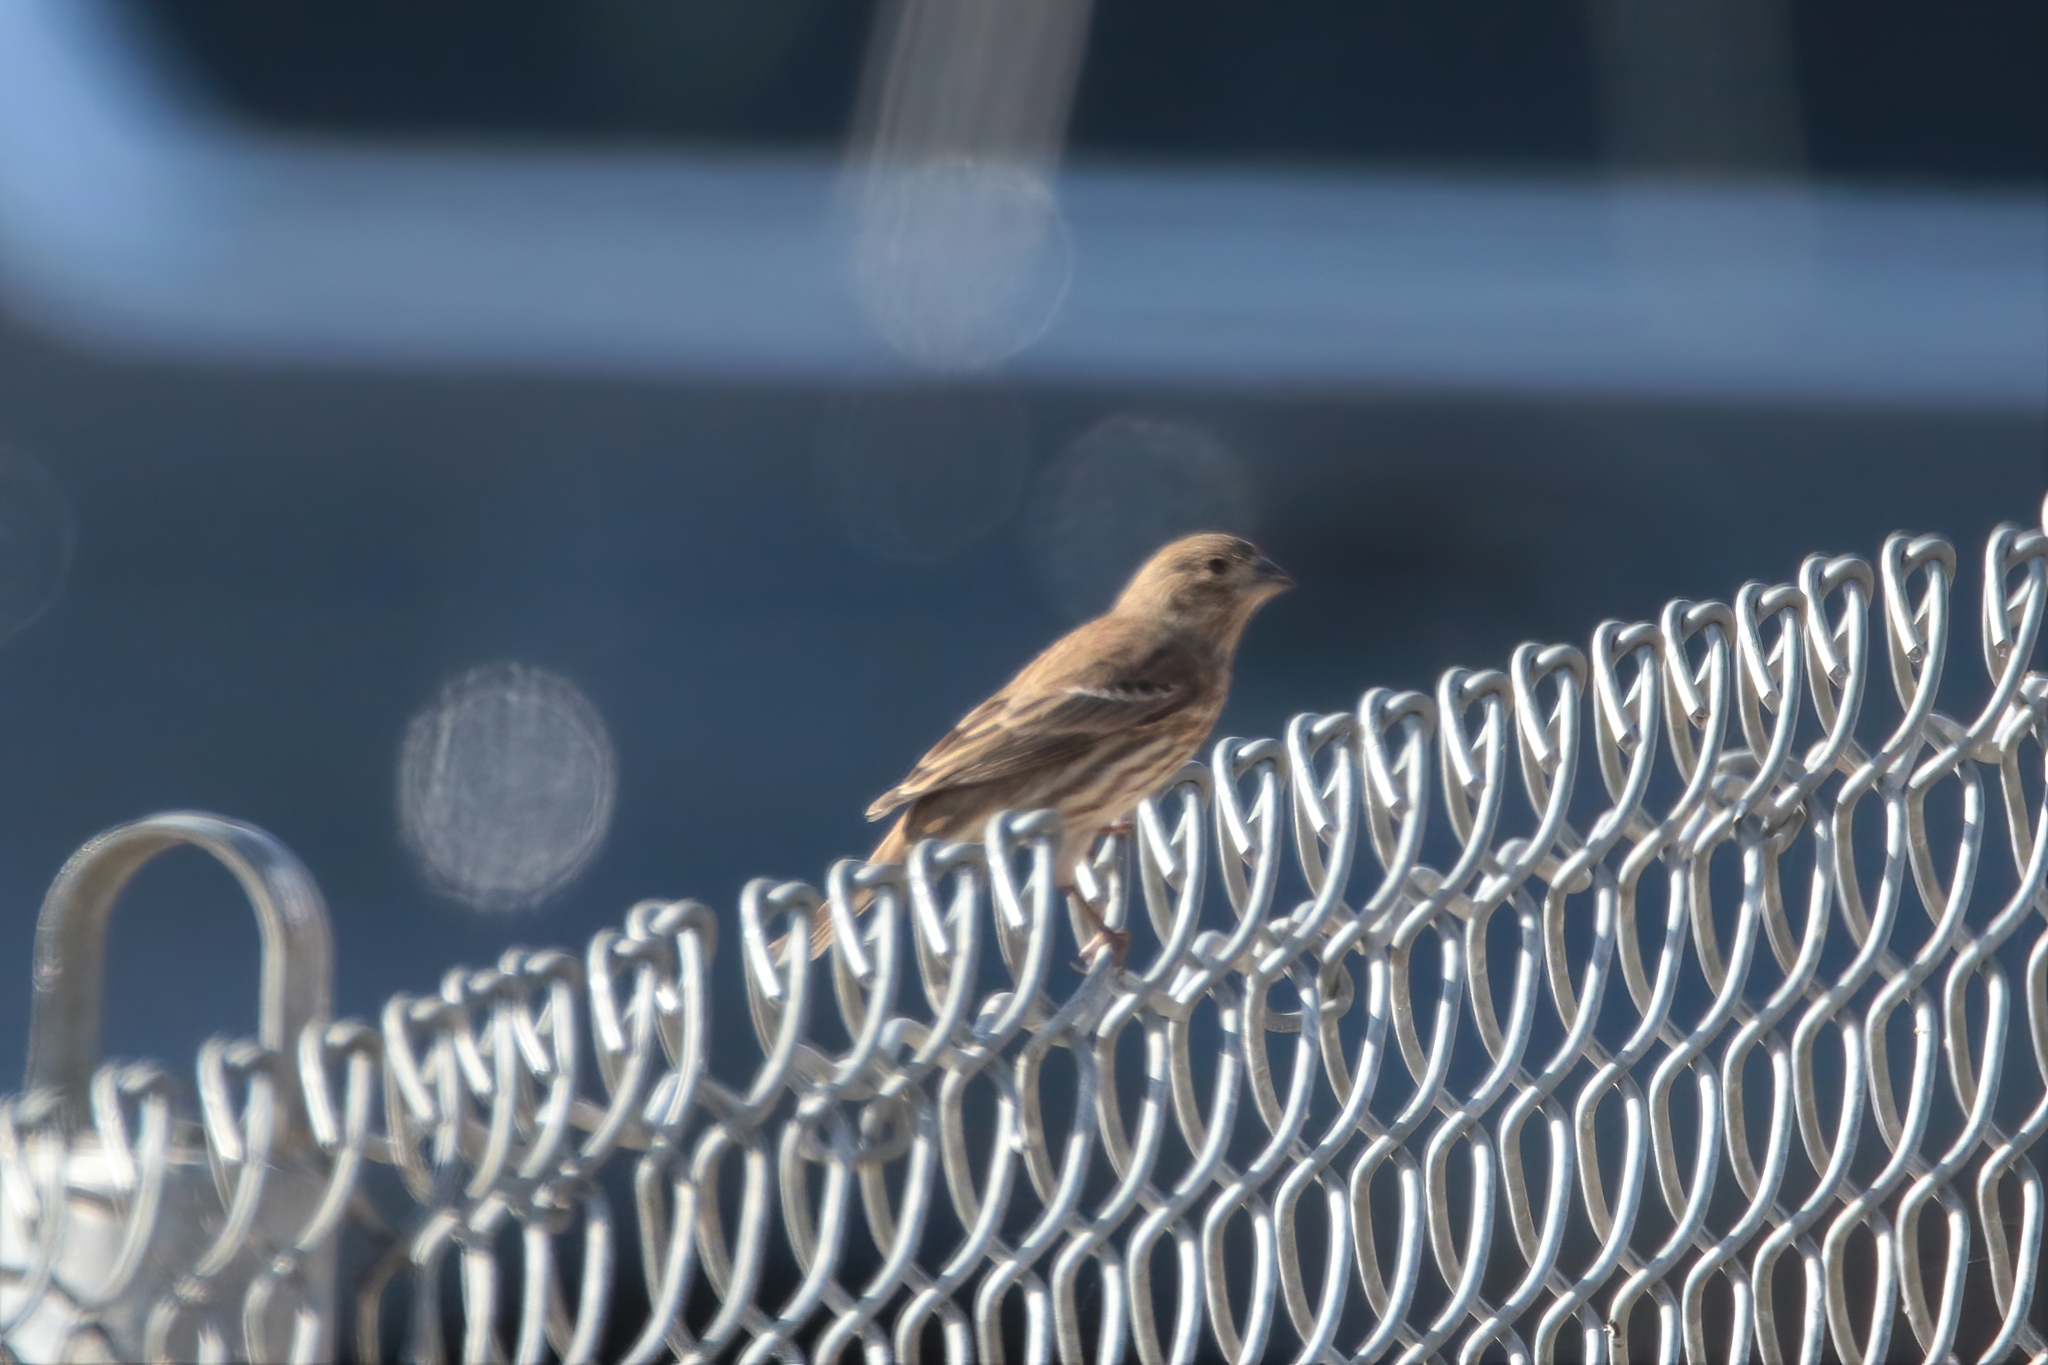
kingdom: Animalia
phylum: Chordata
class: Aves
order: Passeriformes
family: Fringillidae
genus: Haemorhous
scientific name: Haemorhous mexicanus
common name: House finch
